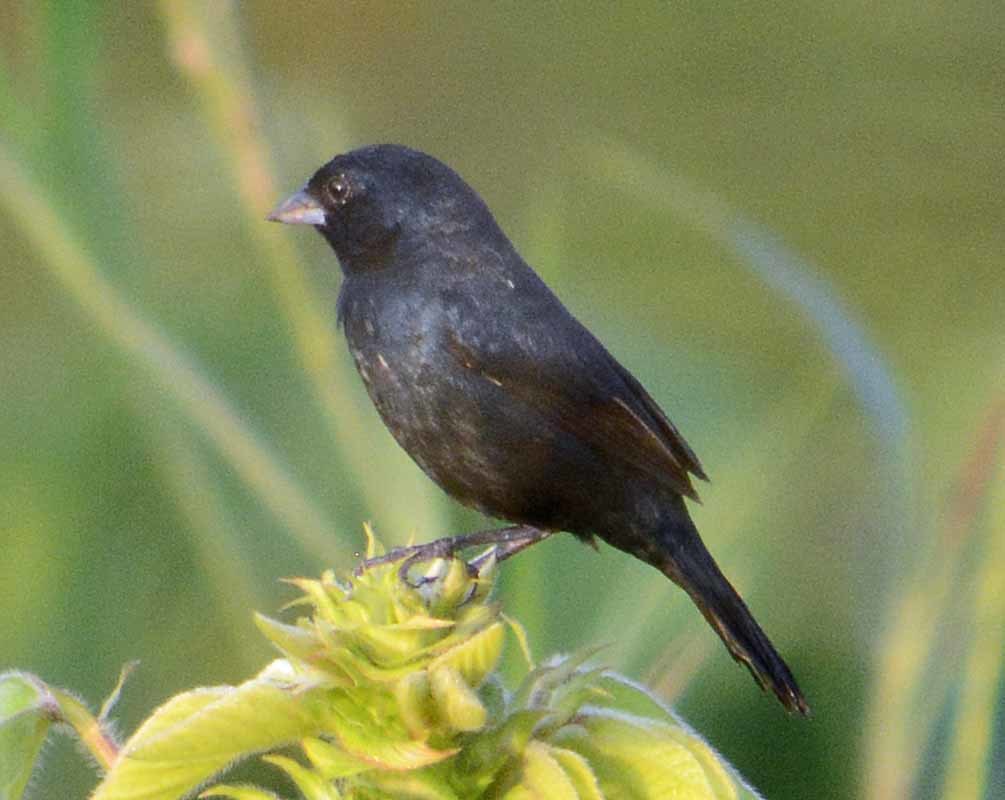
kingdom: Animalia
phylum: Chordata
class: Aves
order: Passeriformes
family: Thraupidae
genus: Volatinia
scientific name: Volatinia jacarina
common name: Blue-black grassquit
